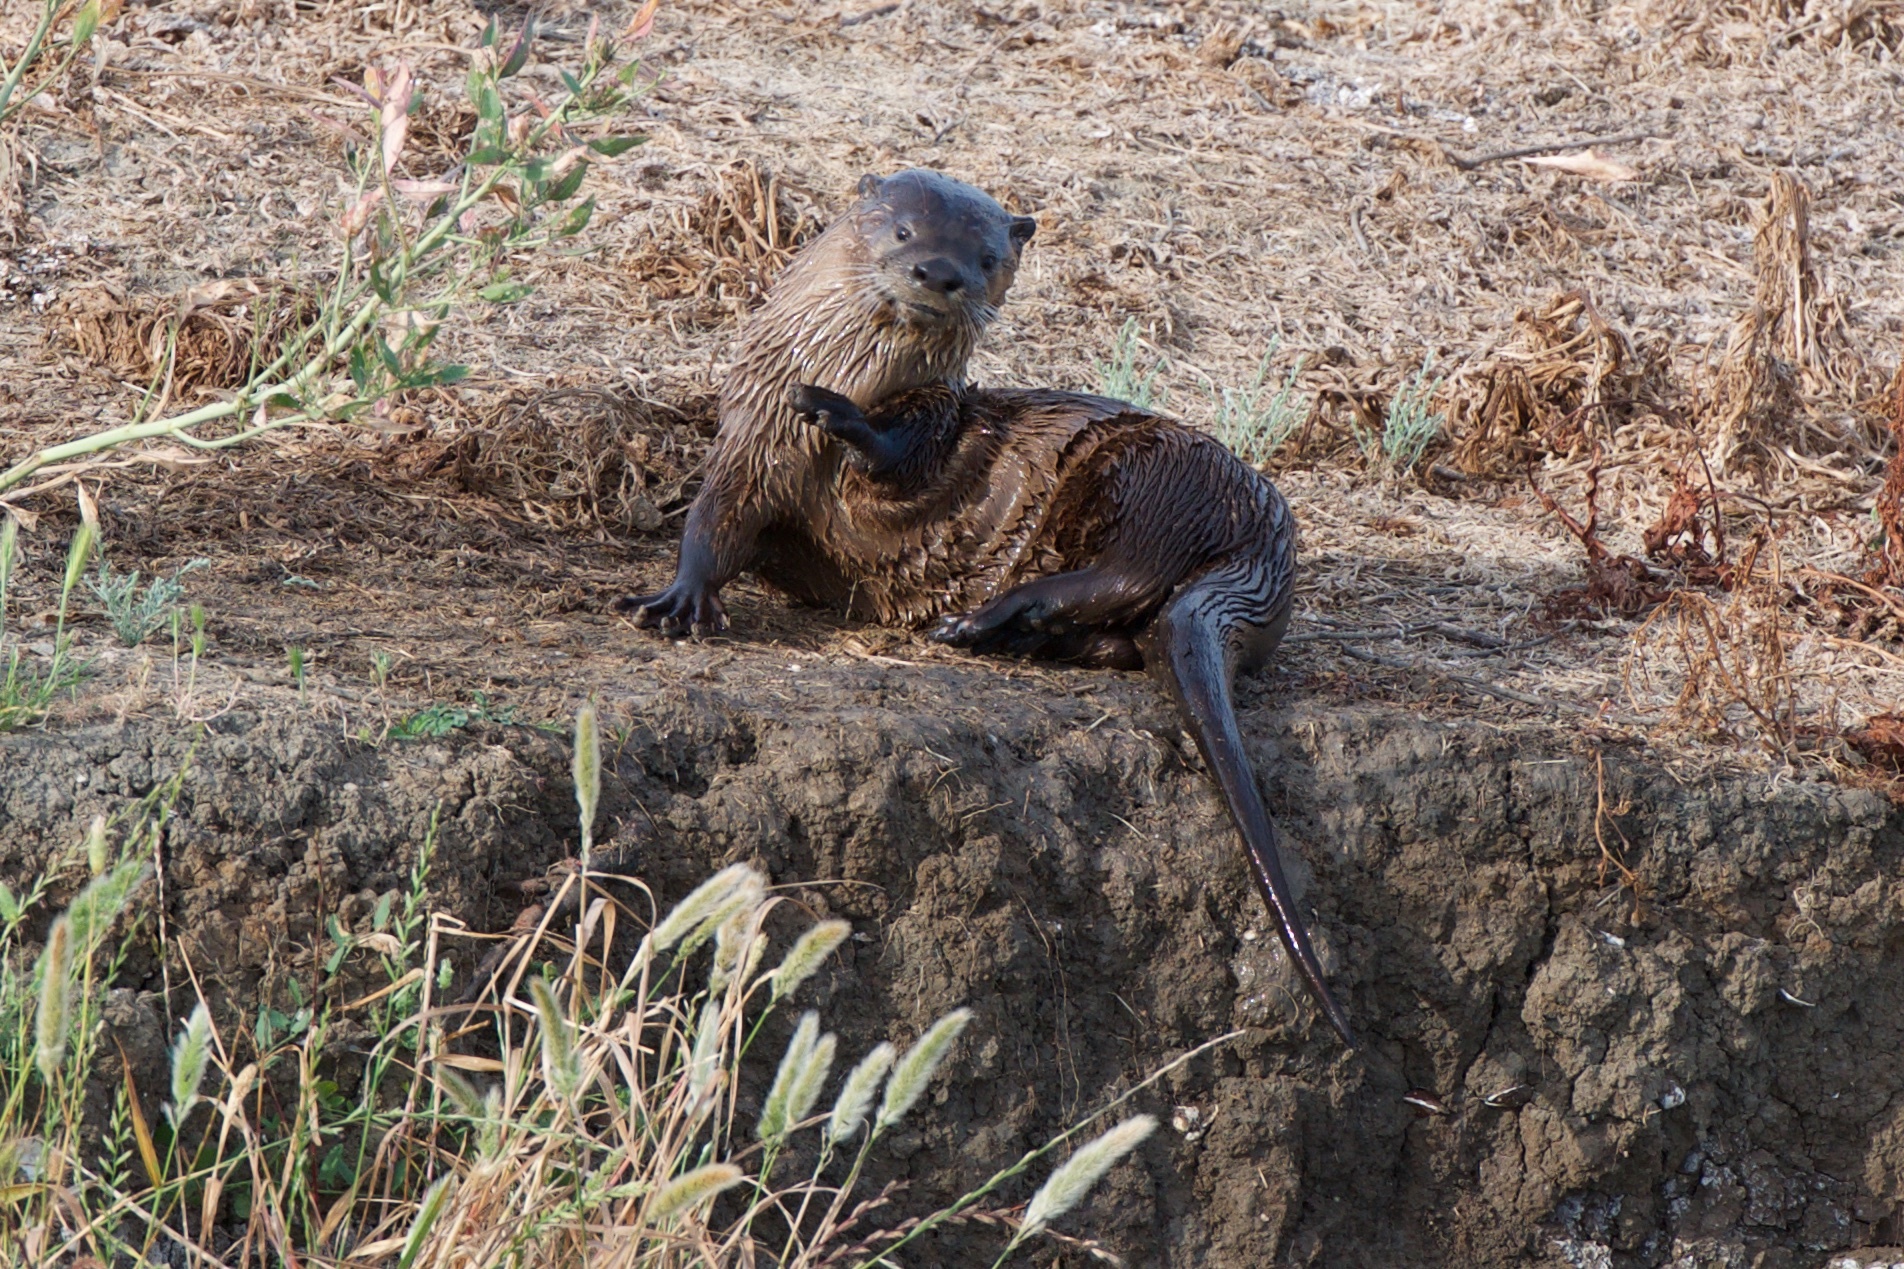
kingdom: Animalia
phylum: Chordata
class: Mammalia
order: Carnivora
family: Mustelidae
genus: Lontra
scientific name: Lontra canadensis
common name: North american river otter
